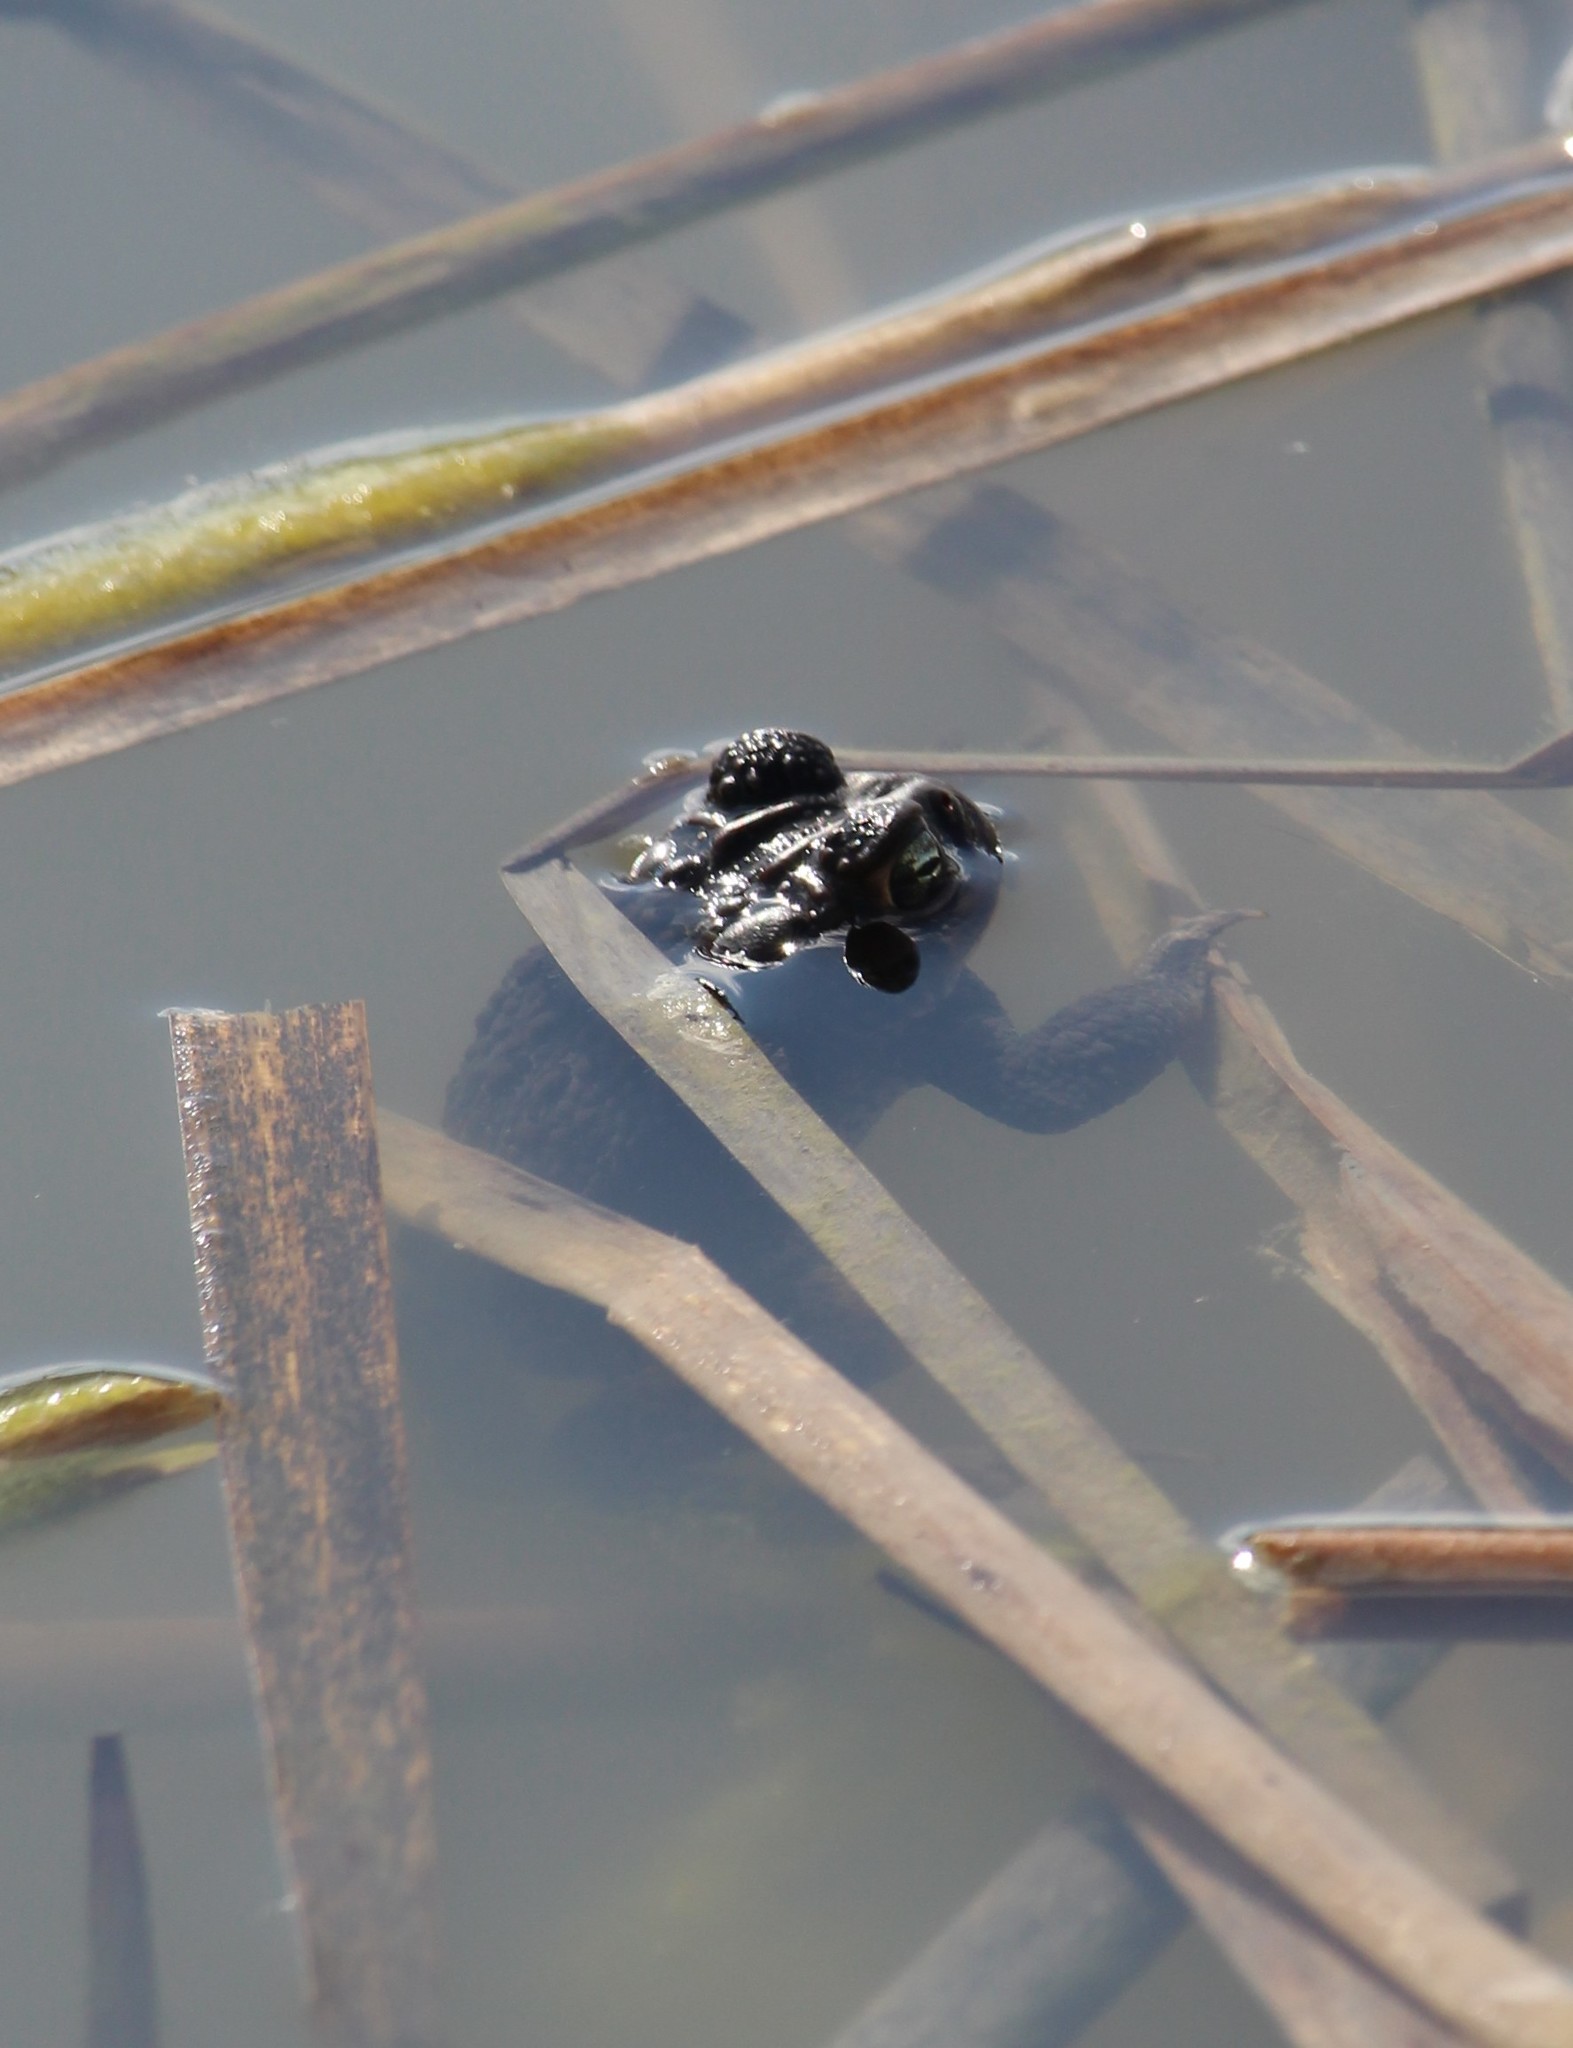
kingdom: Animalia
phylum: Chordata
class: Amphibia
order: Anura
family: Bufonidae
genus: Anaxyrus
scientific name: Anaxyrus americanus
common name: American toad
